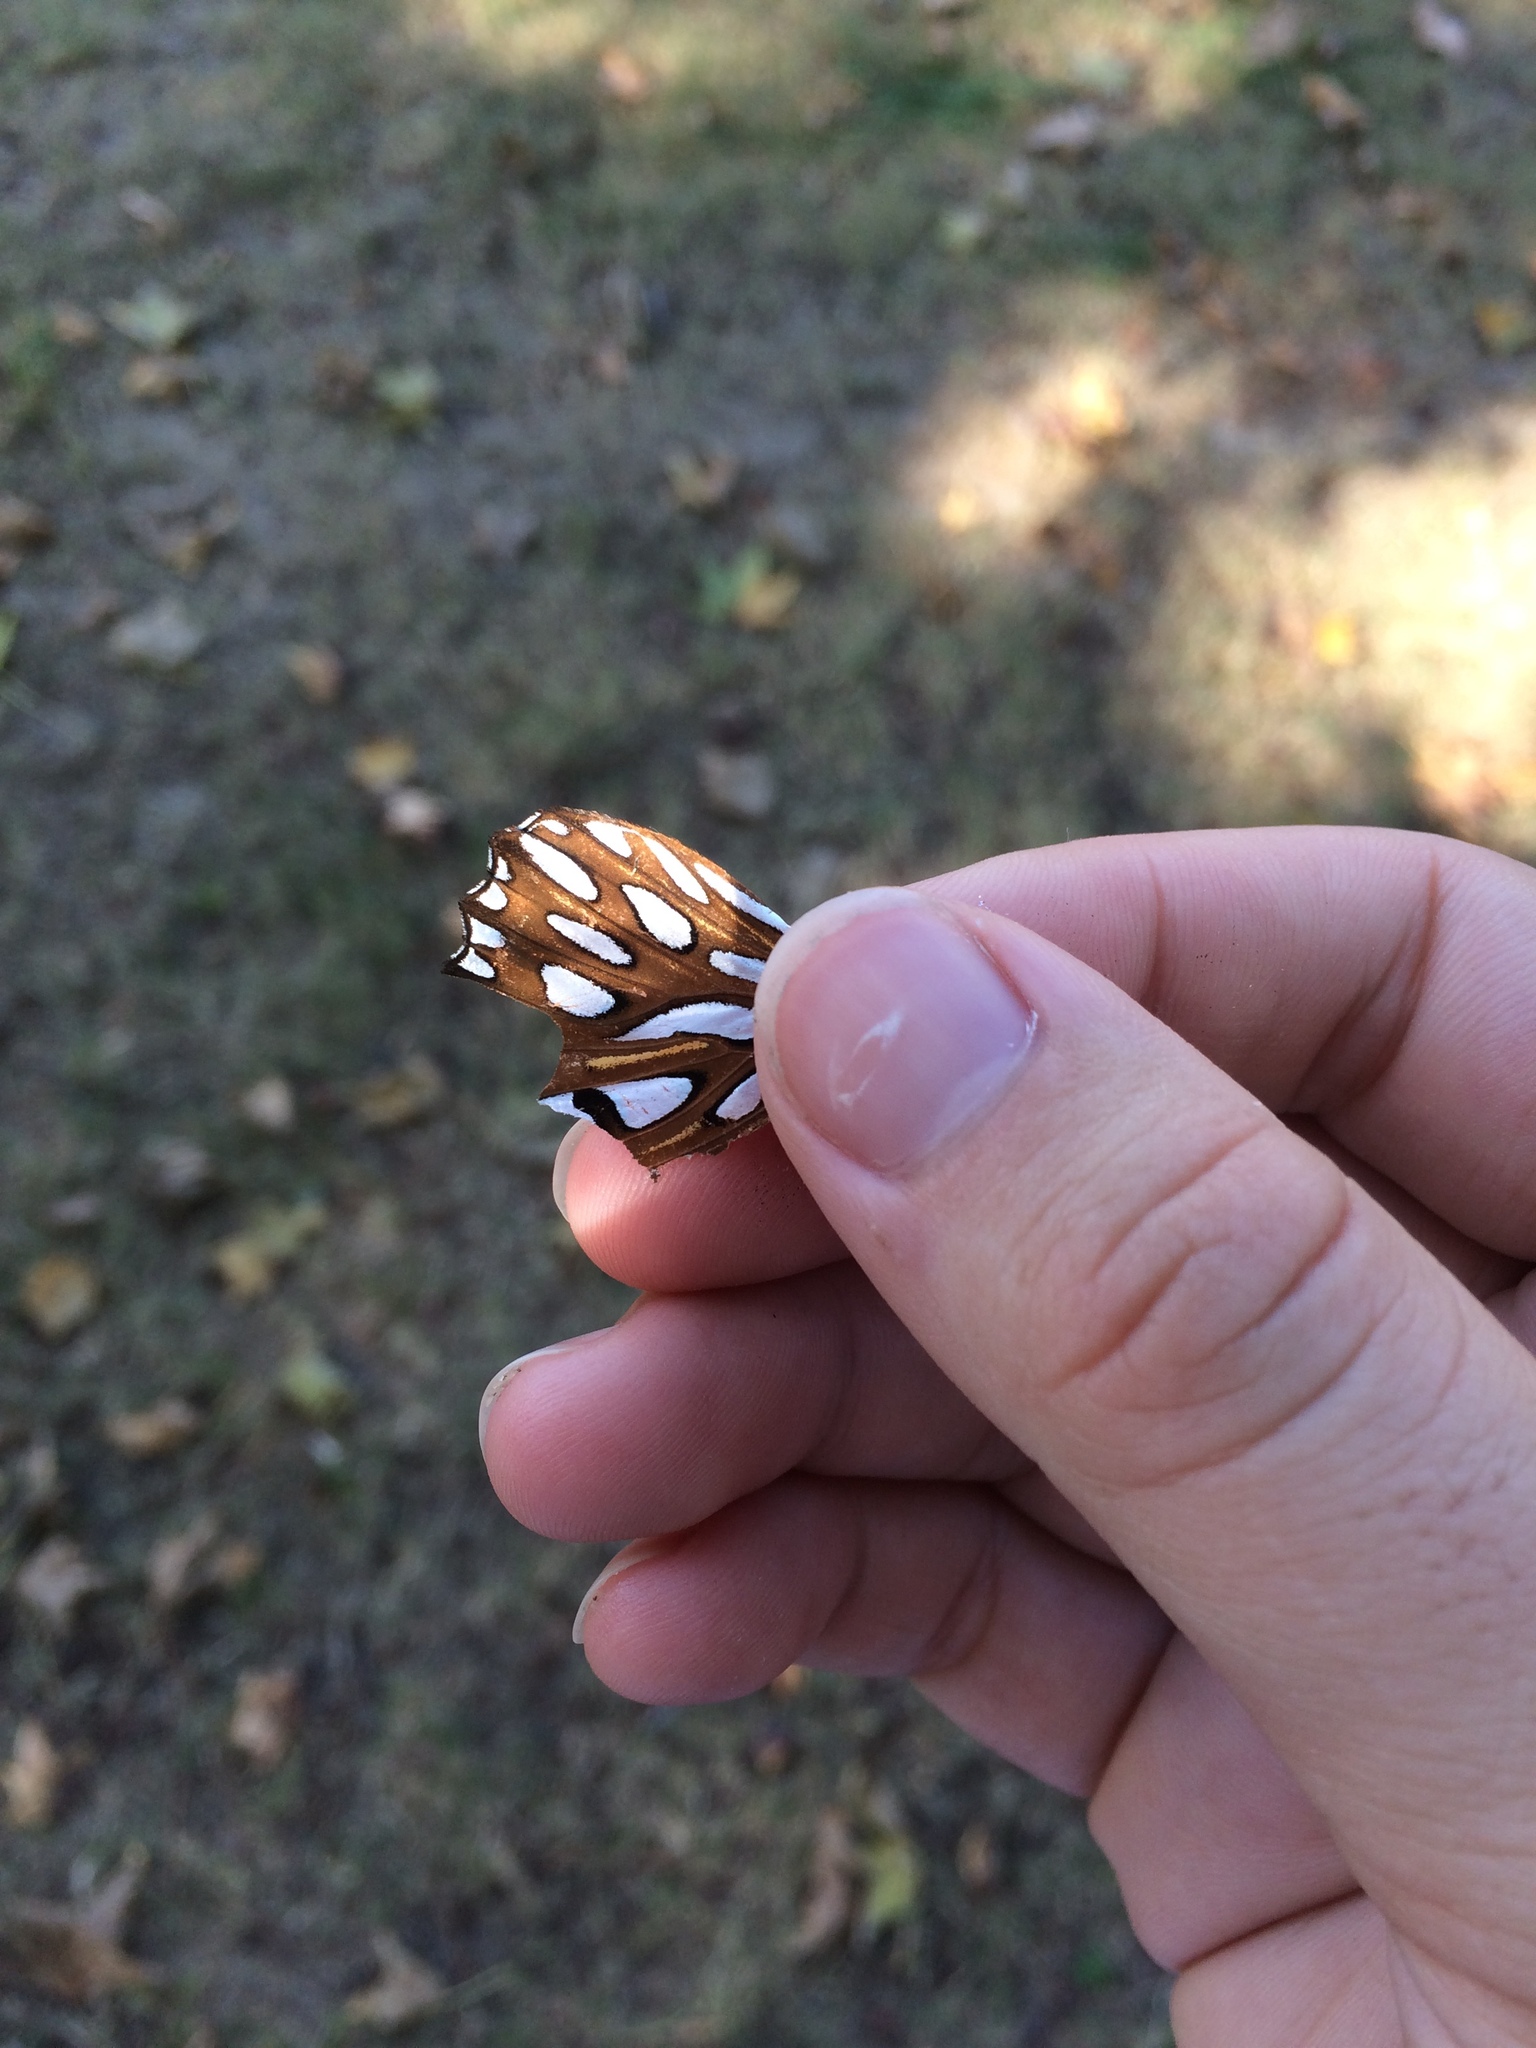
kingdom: Animalia
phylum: Arthropoda
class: Insecta
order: Lepidoptera
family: Nymphalidae
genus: Dione
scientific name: Dione vanillae
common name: Gulf fritillary
